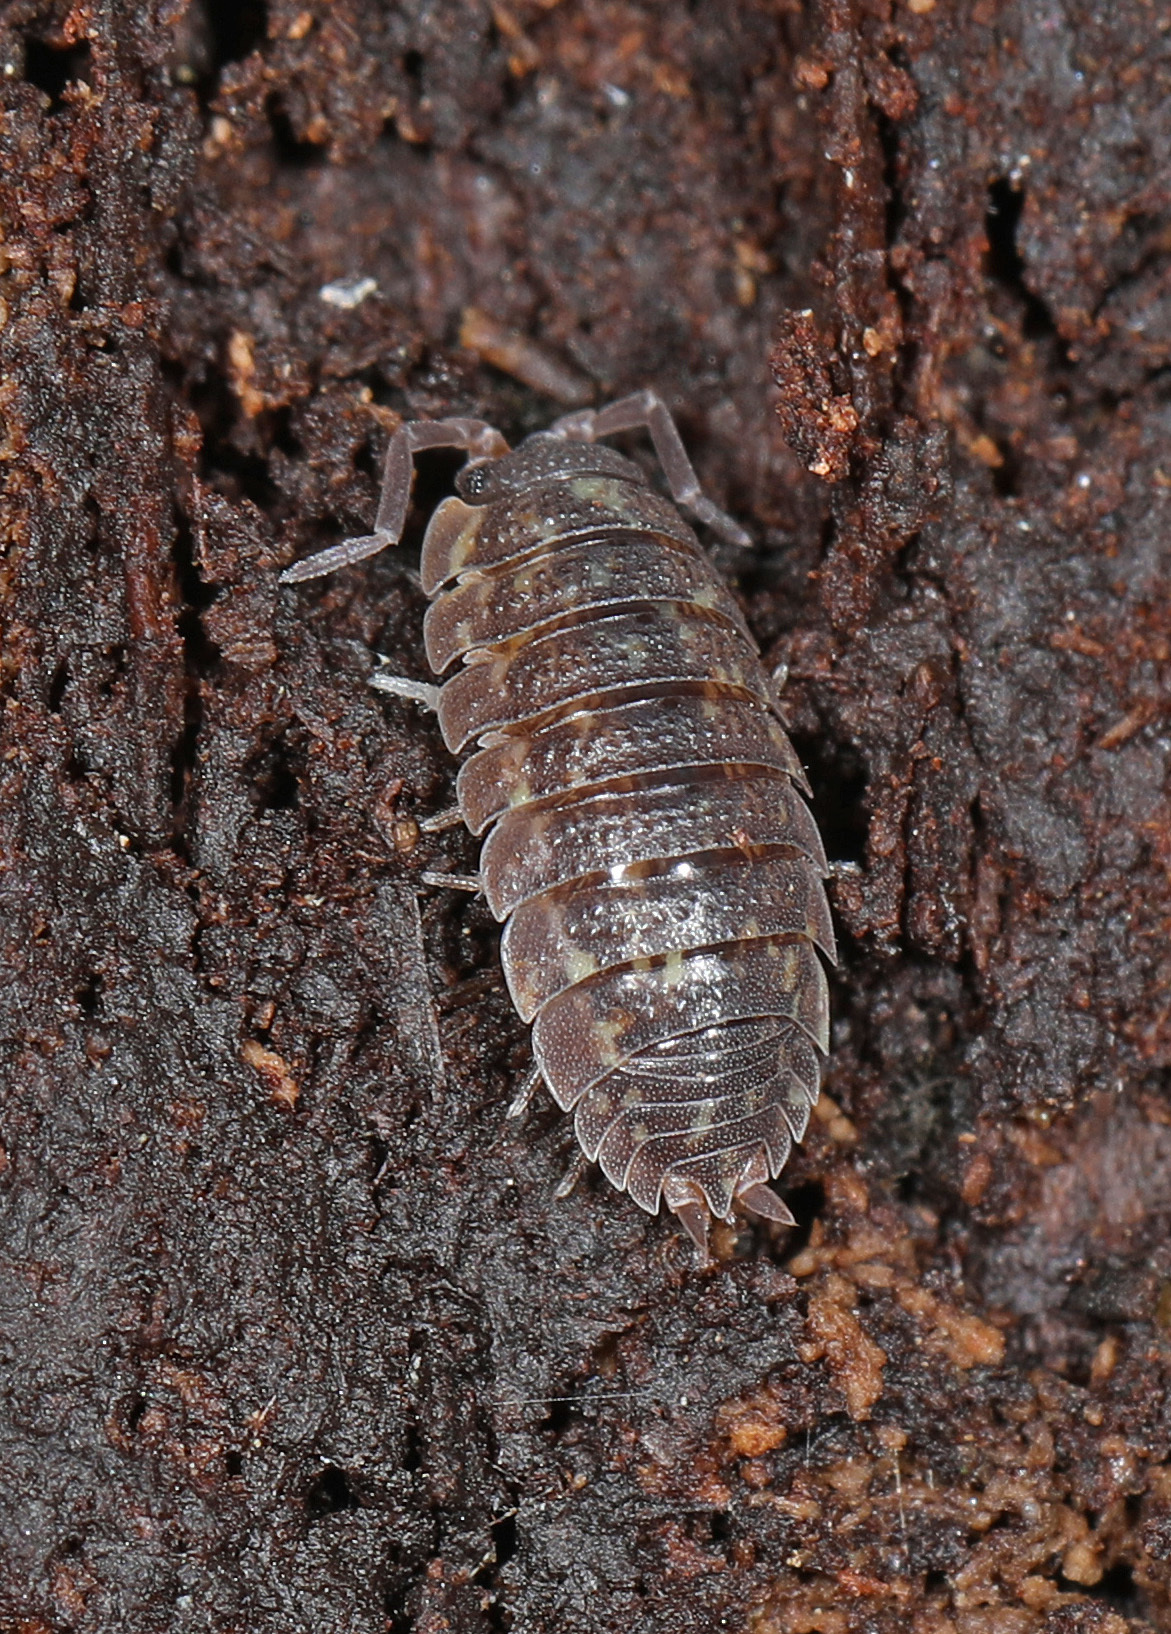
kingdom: Animalia
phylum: Arthropoda
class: Malacostraca
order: Isopoda
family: Porcellionidae
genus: Porcellio
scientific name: Porcellio scaber
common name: Common rough woodlouse
